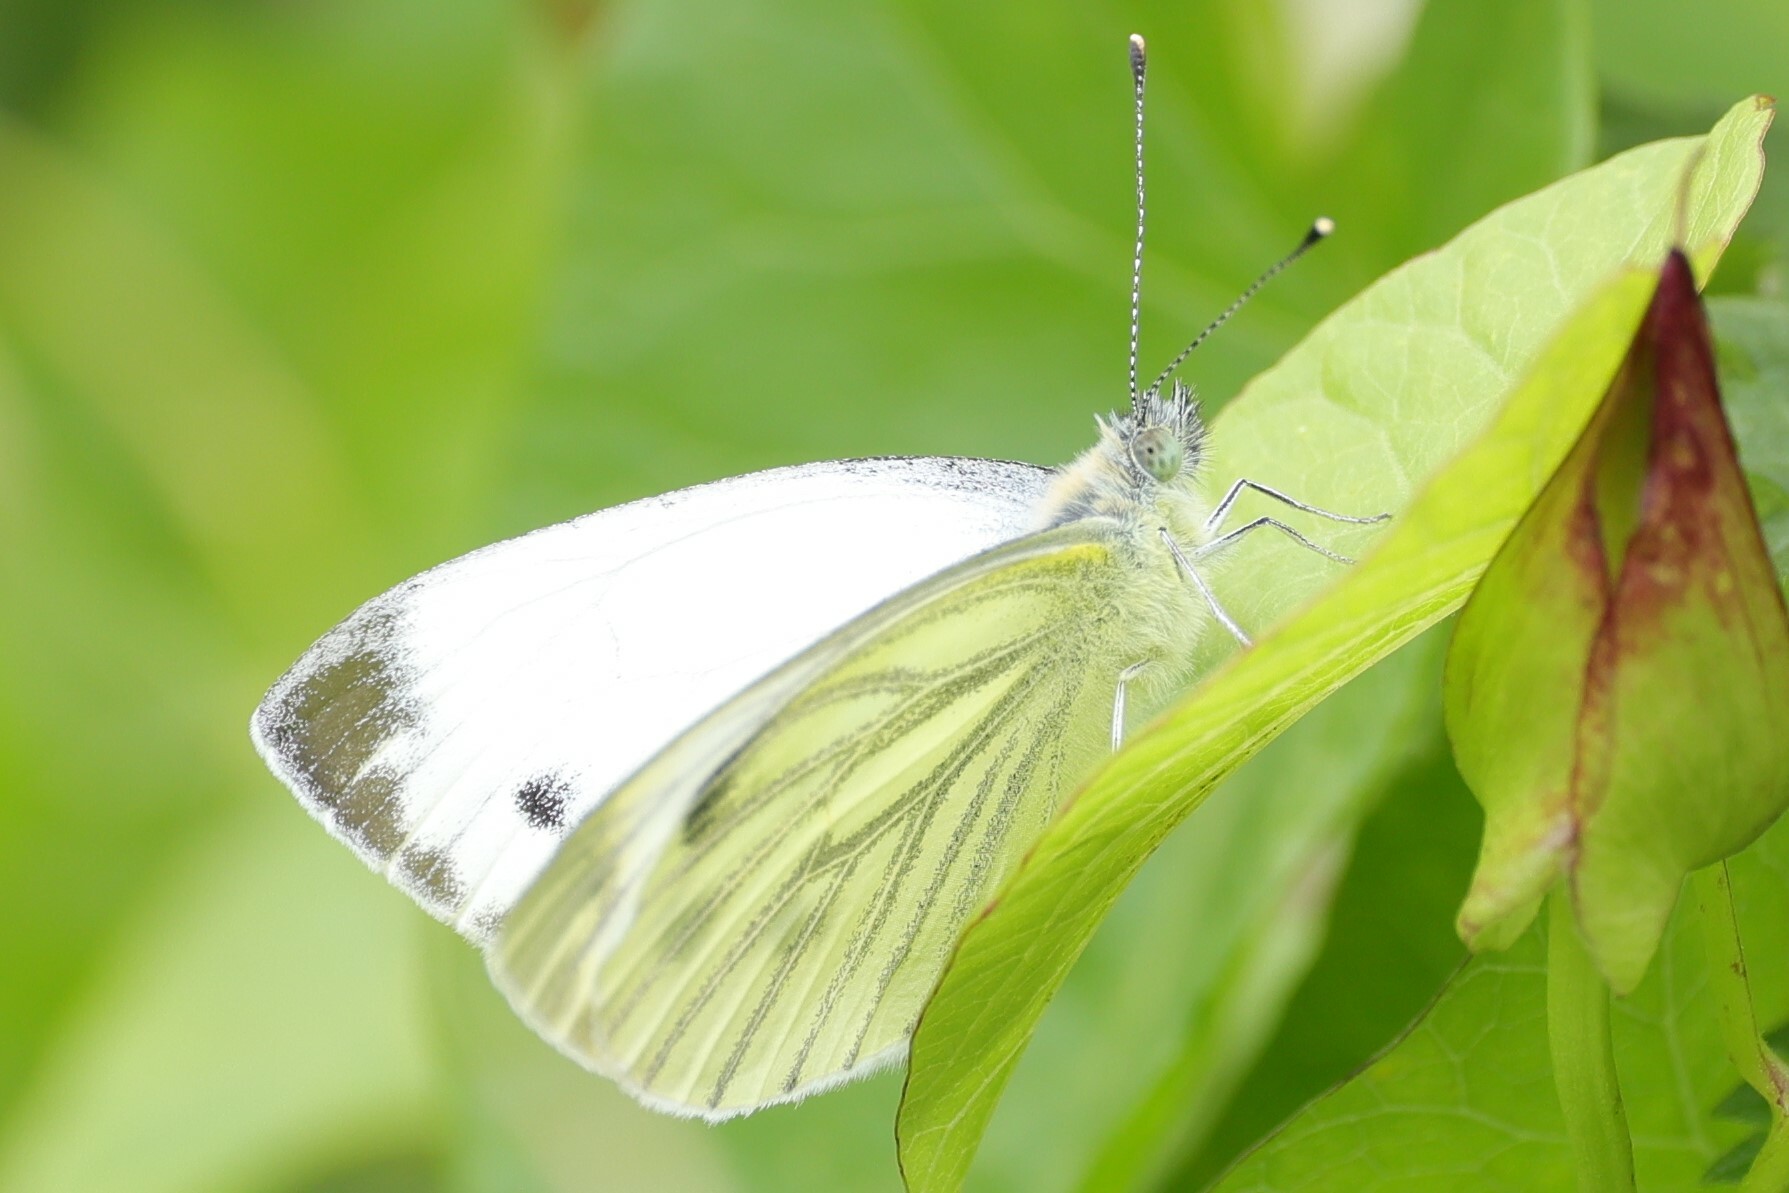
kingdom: Animalia
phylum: Arthropoda
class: Insecta
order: Lepidoptera
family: Pieridae
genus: Pieris
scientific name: Pieris napi
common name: Green-veined white
